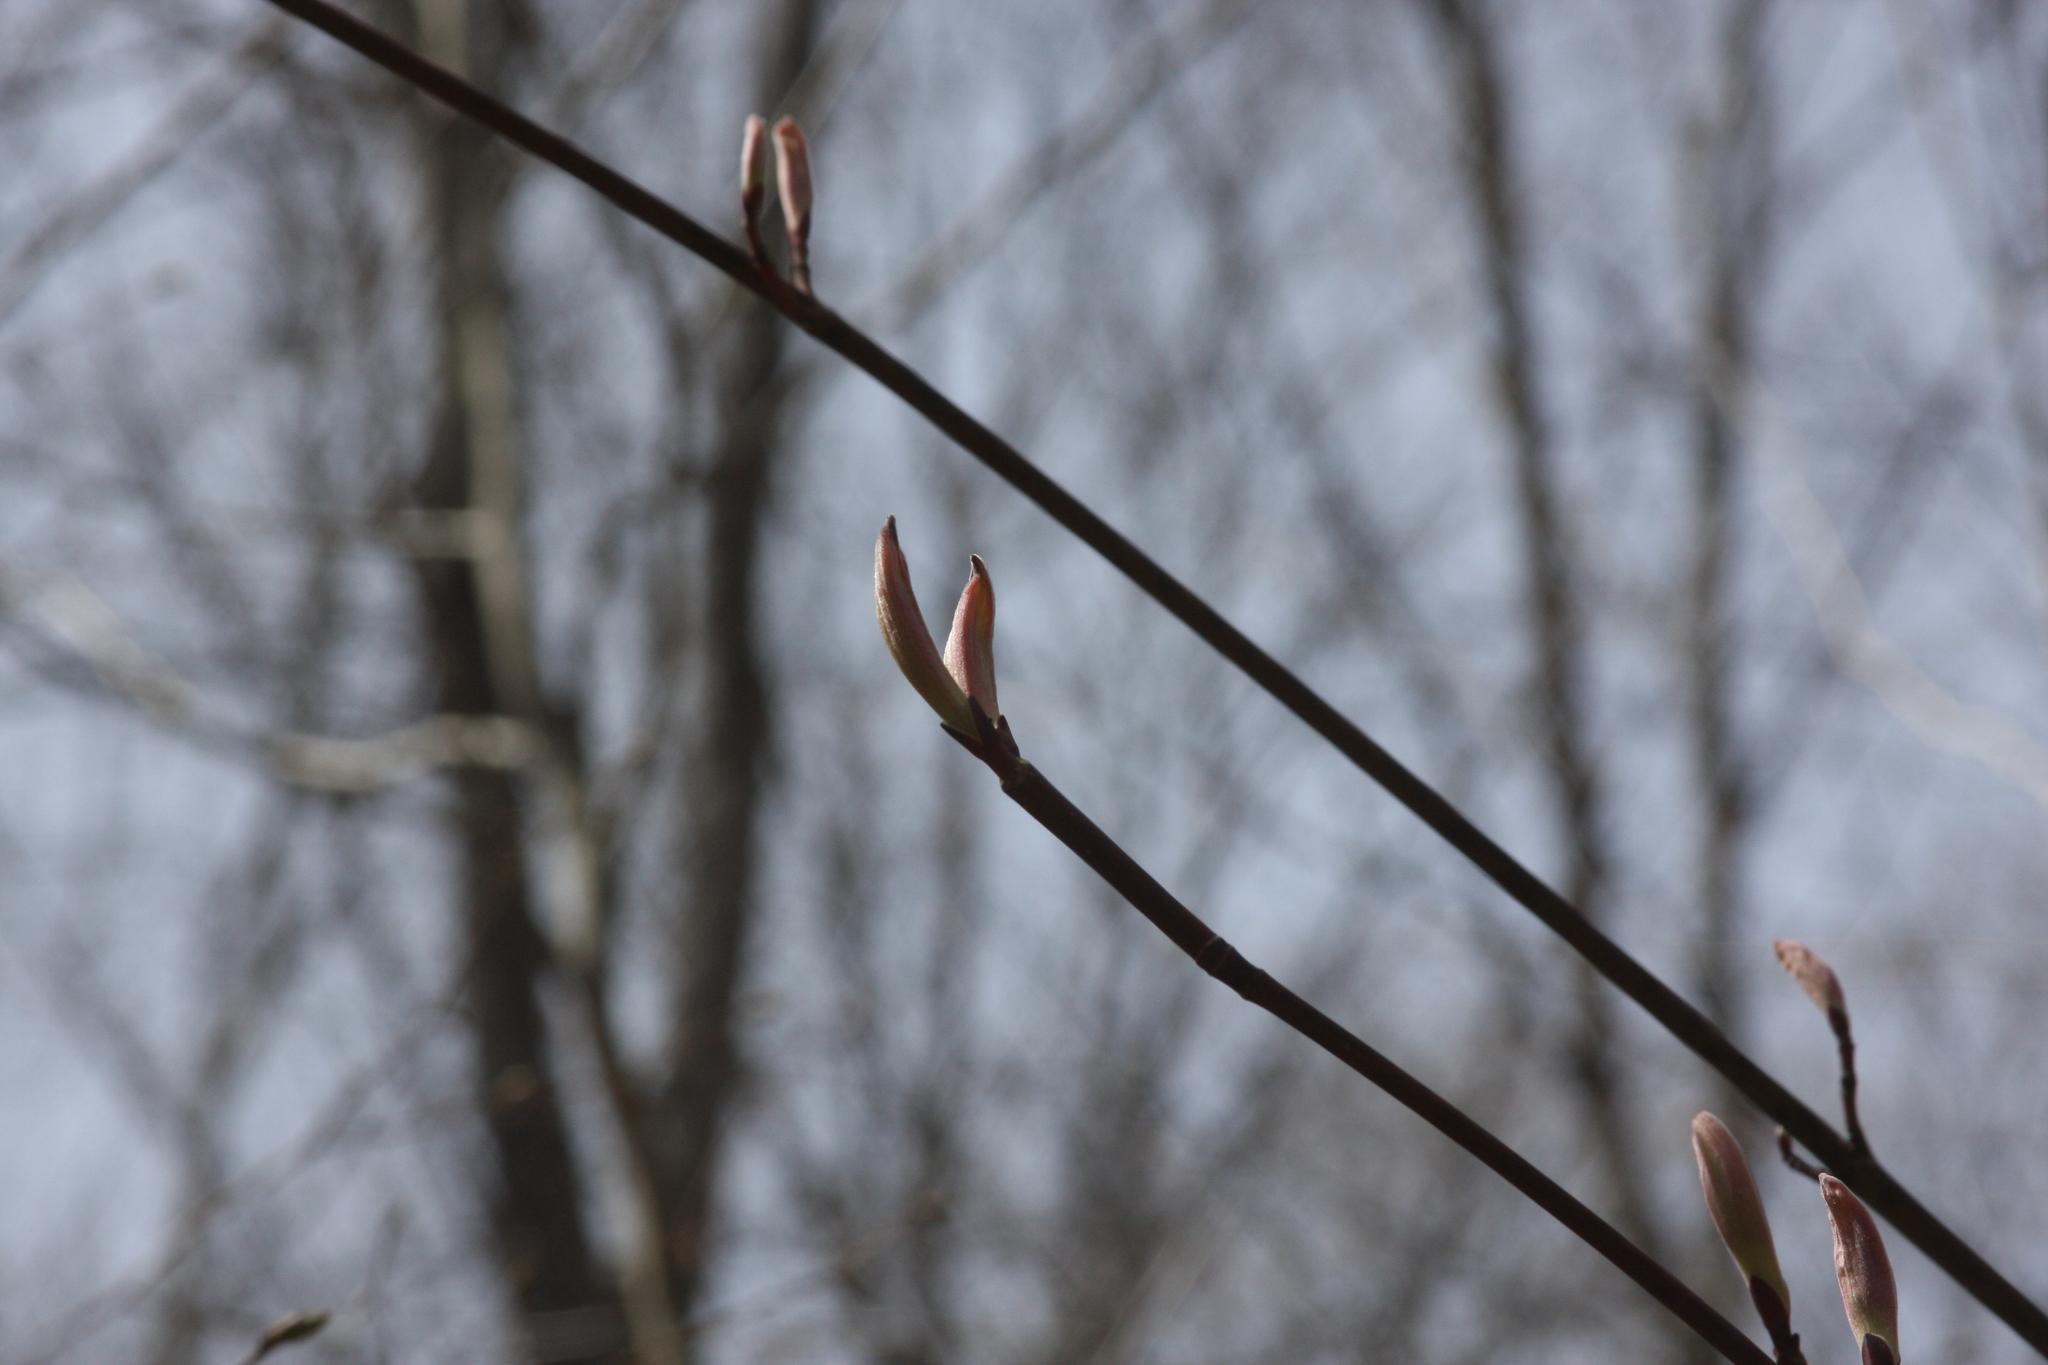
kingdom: Plantae
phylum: Tracheophyta
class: Magnoliopsida
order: Sapindales
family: Sapindaceae
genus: Acer
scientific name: Acer pensylvanicum
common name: Moosewood
